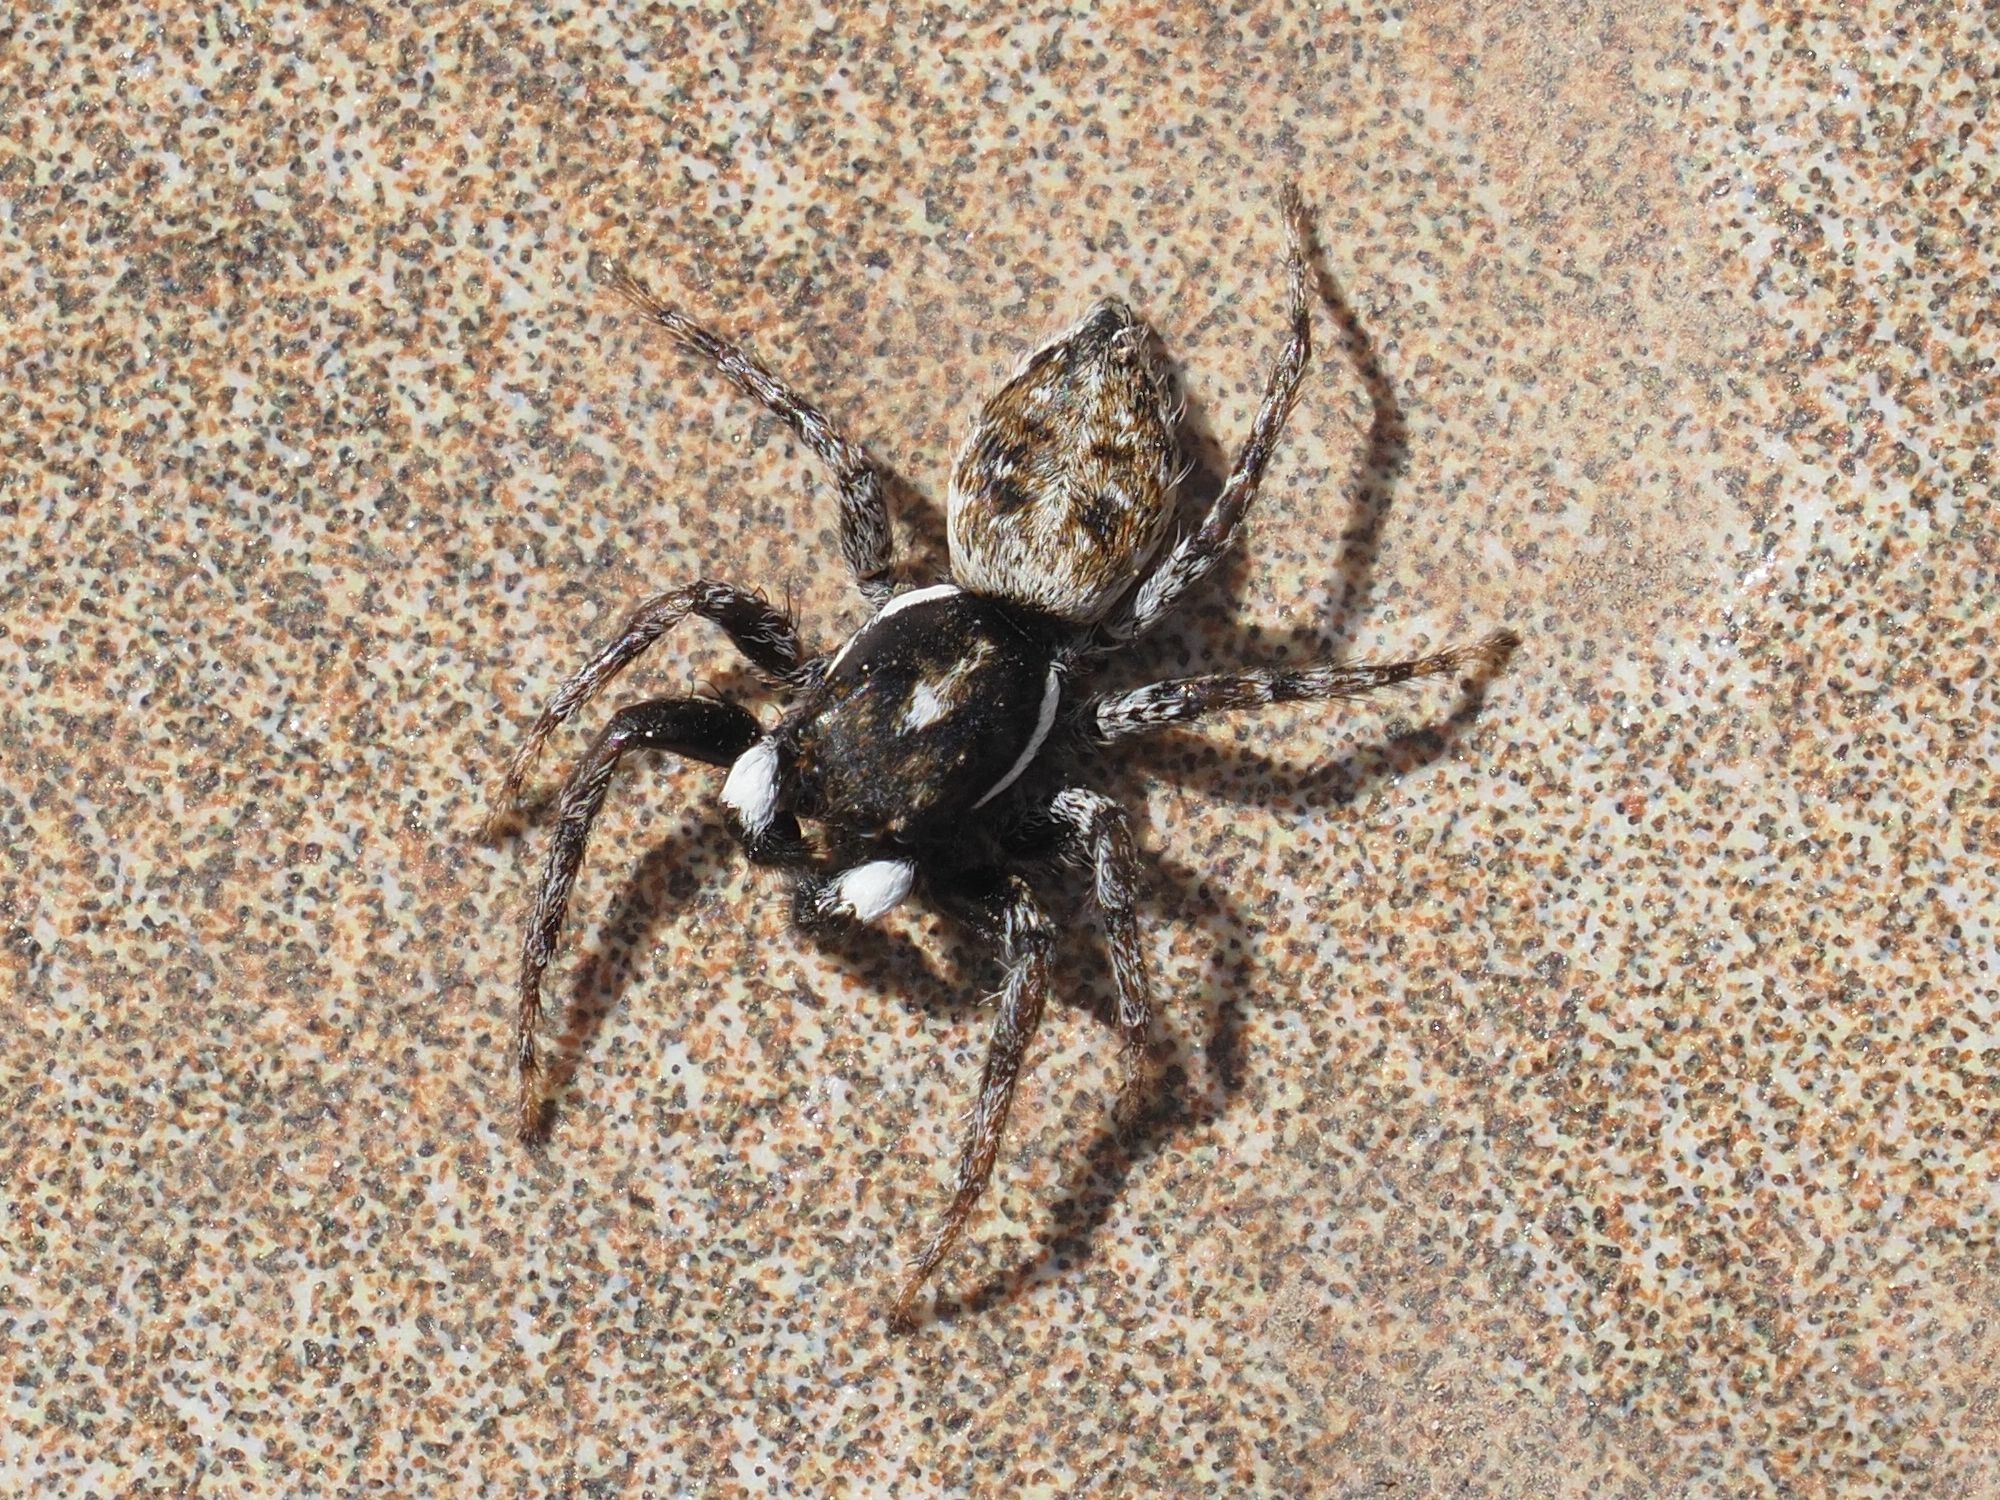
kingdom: Animalia
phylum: Arthropoda
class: Arachnida
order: Araneae
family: Salticidae
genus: Menemerus
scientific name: Menemerus semilimbatus
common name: Jumping spider
